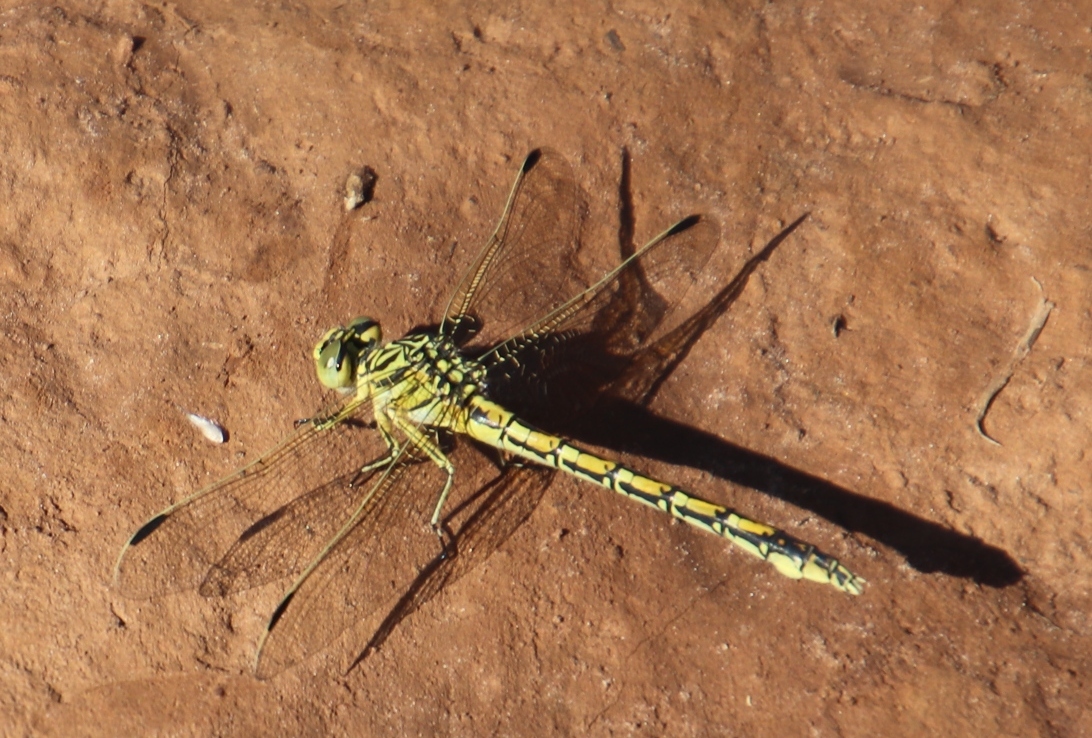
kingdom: Animalia
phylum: Arthropoda
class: Insecta
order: Odonata
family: Gomphidae
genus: Ceratogomphus
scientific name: Ceratogomphus pictus
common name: Common thorntail
